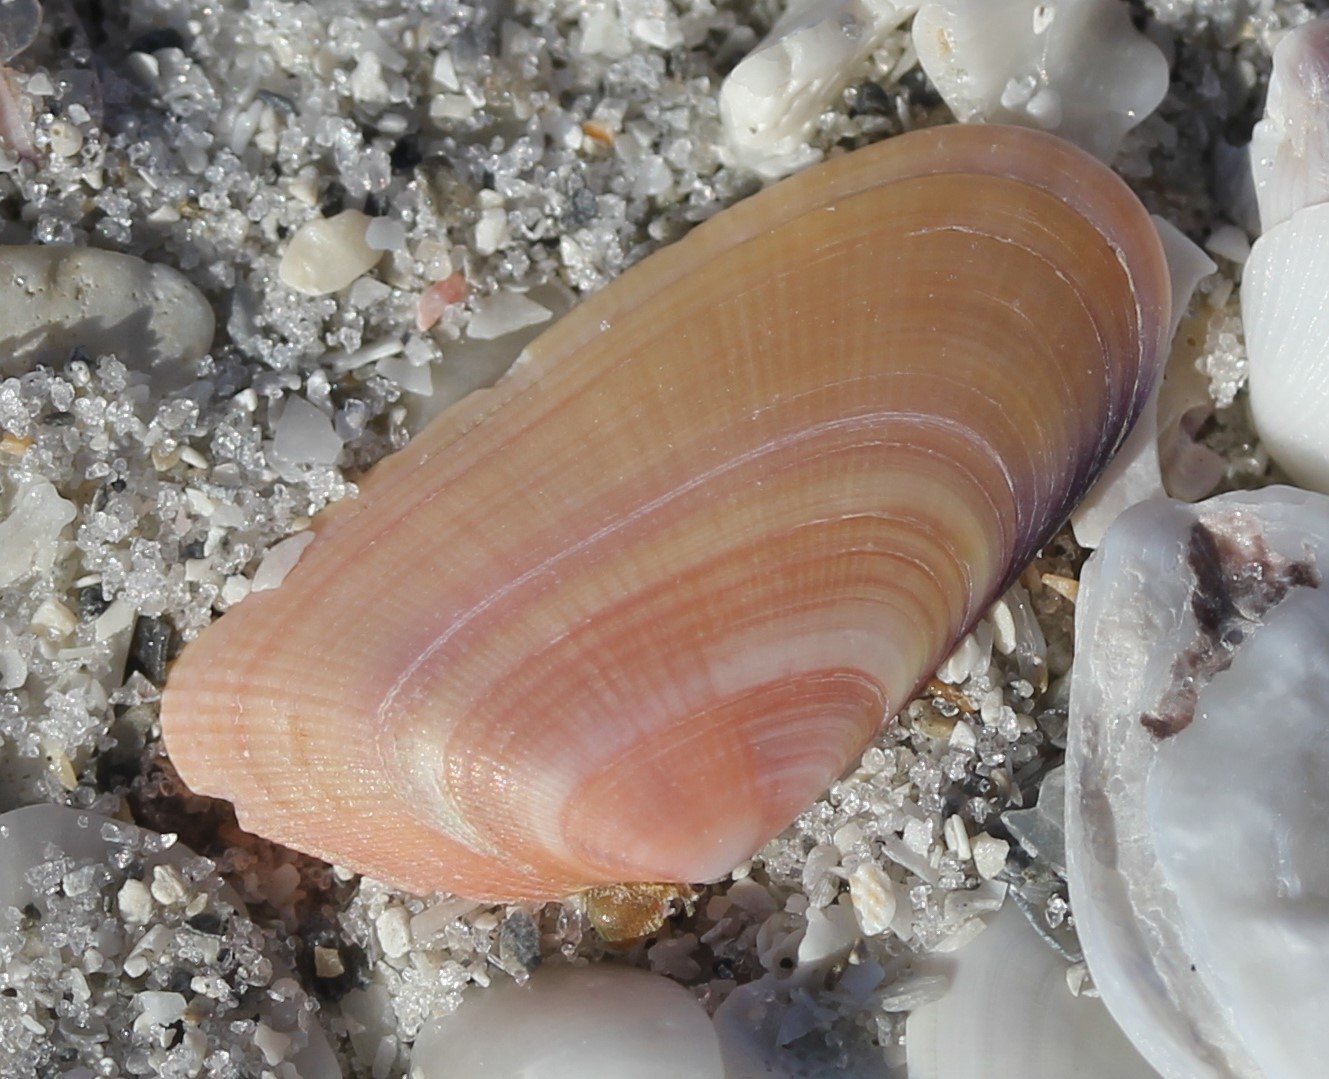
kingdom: Animalia
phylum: Mollusca
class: Bivalvia
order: Cardiida
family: Donacidae
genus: Donax
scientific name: Donax variabilis
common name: Butterfly shell
